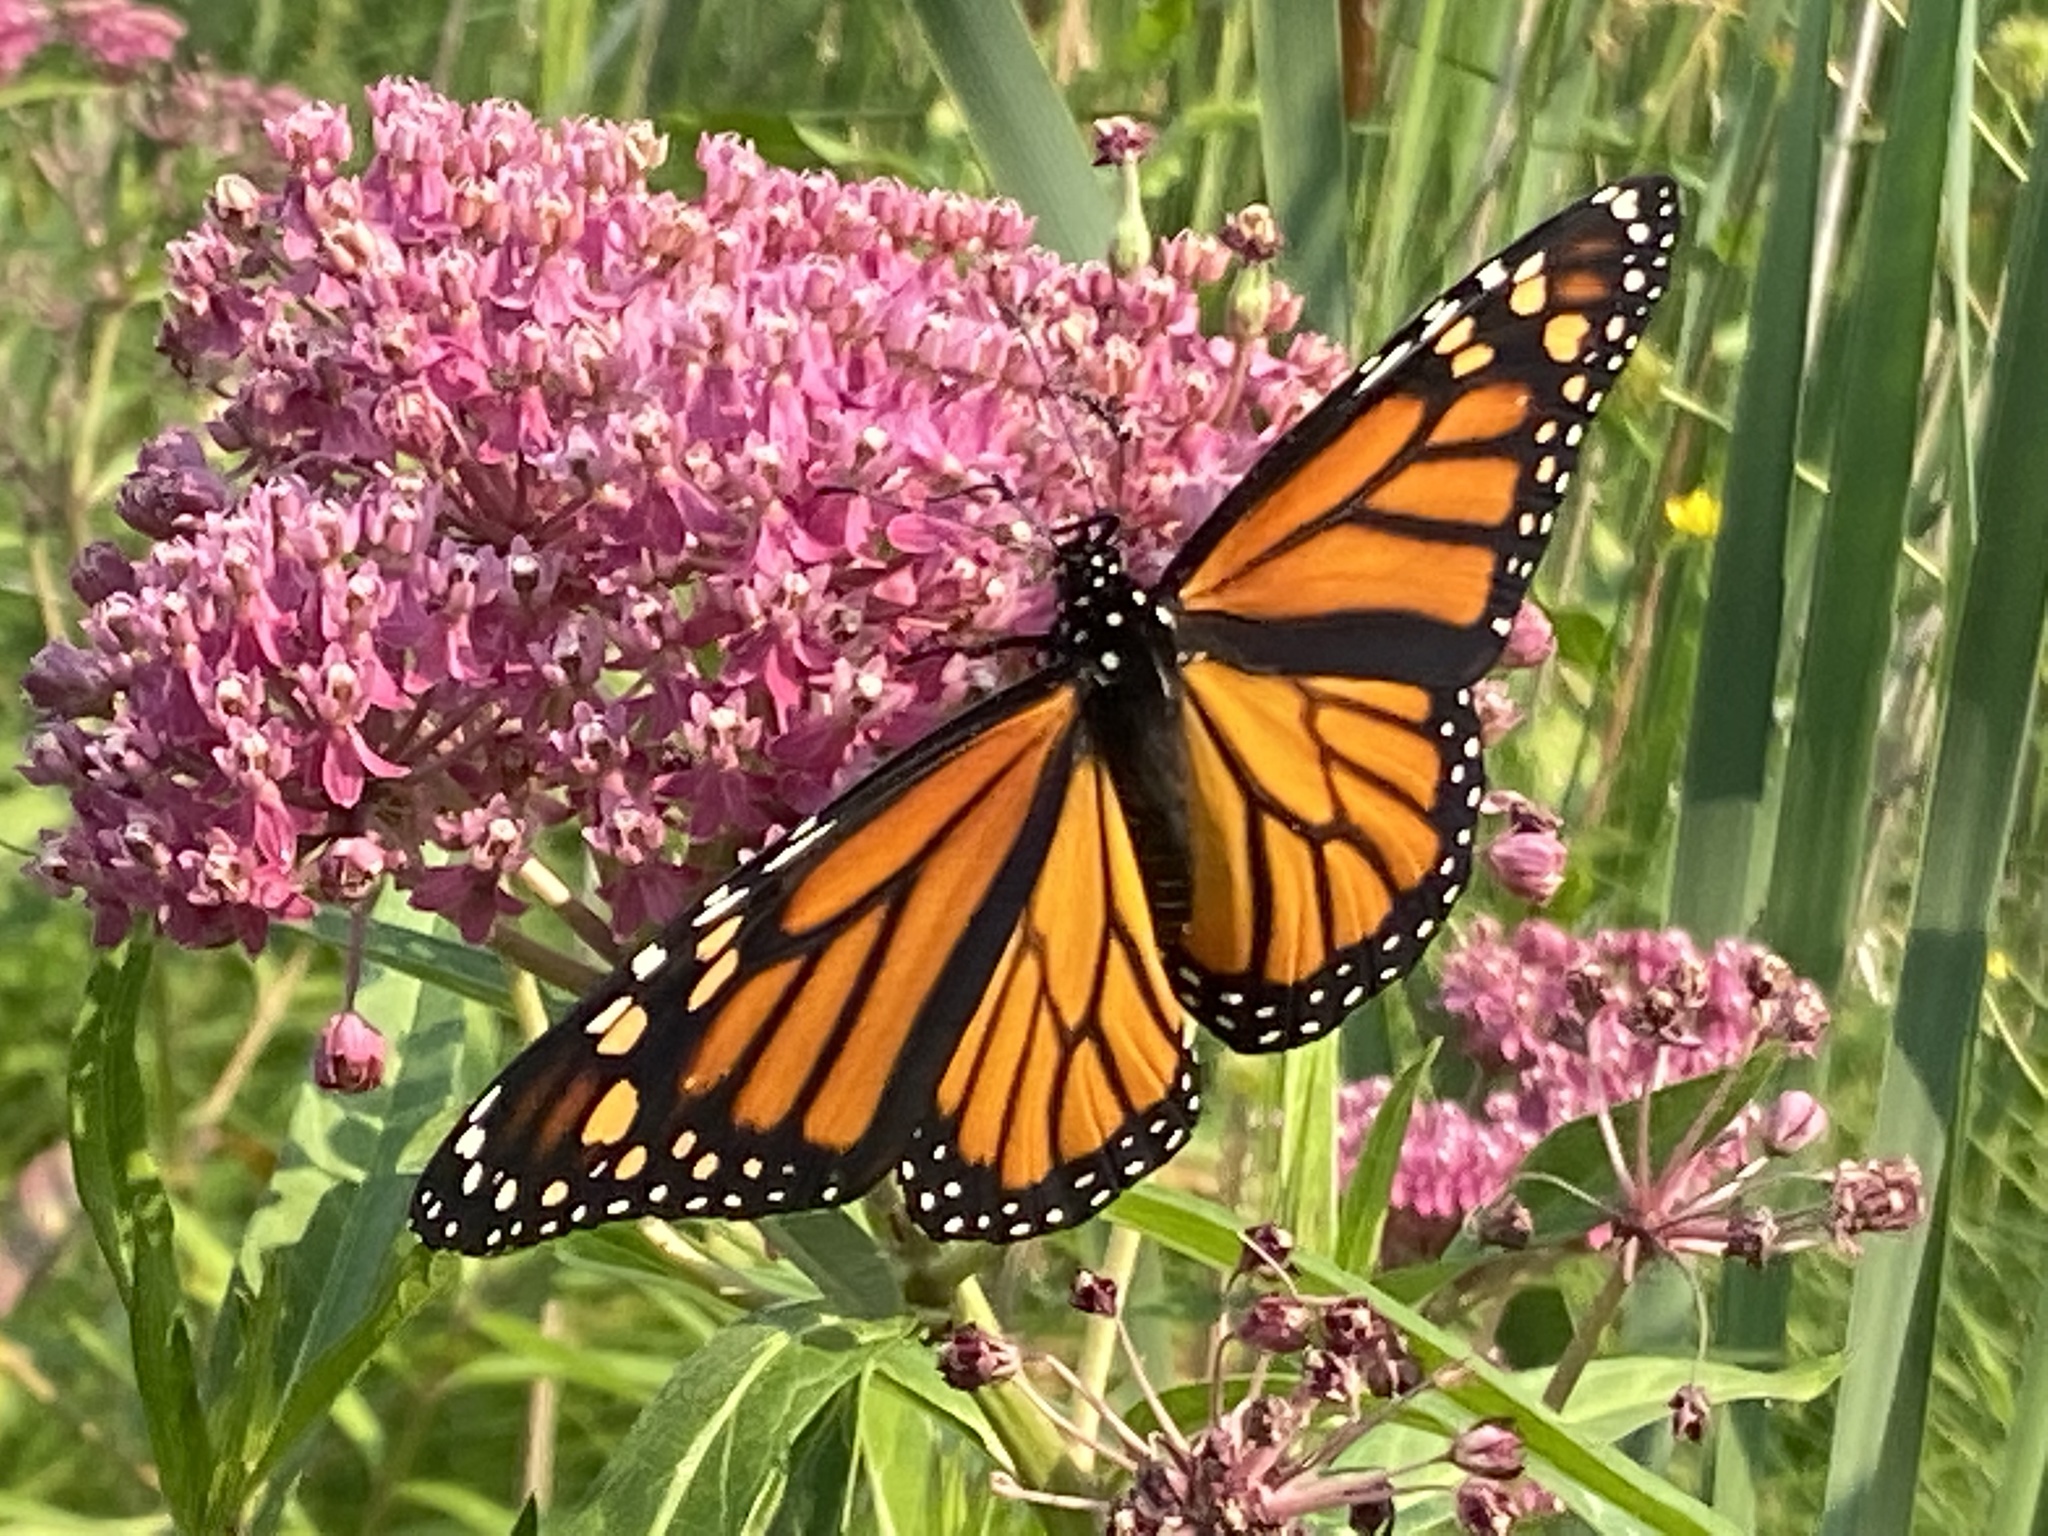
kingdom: Animalia
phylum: Arthropoda
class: Insecta
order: Lepidoptera
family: Nymphalidae
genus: Danaus
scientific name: Danaus plexippus
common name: Monarch
